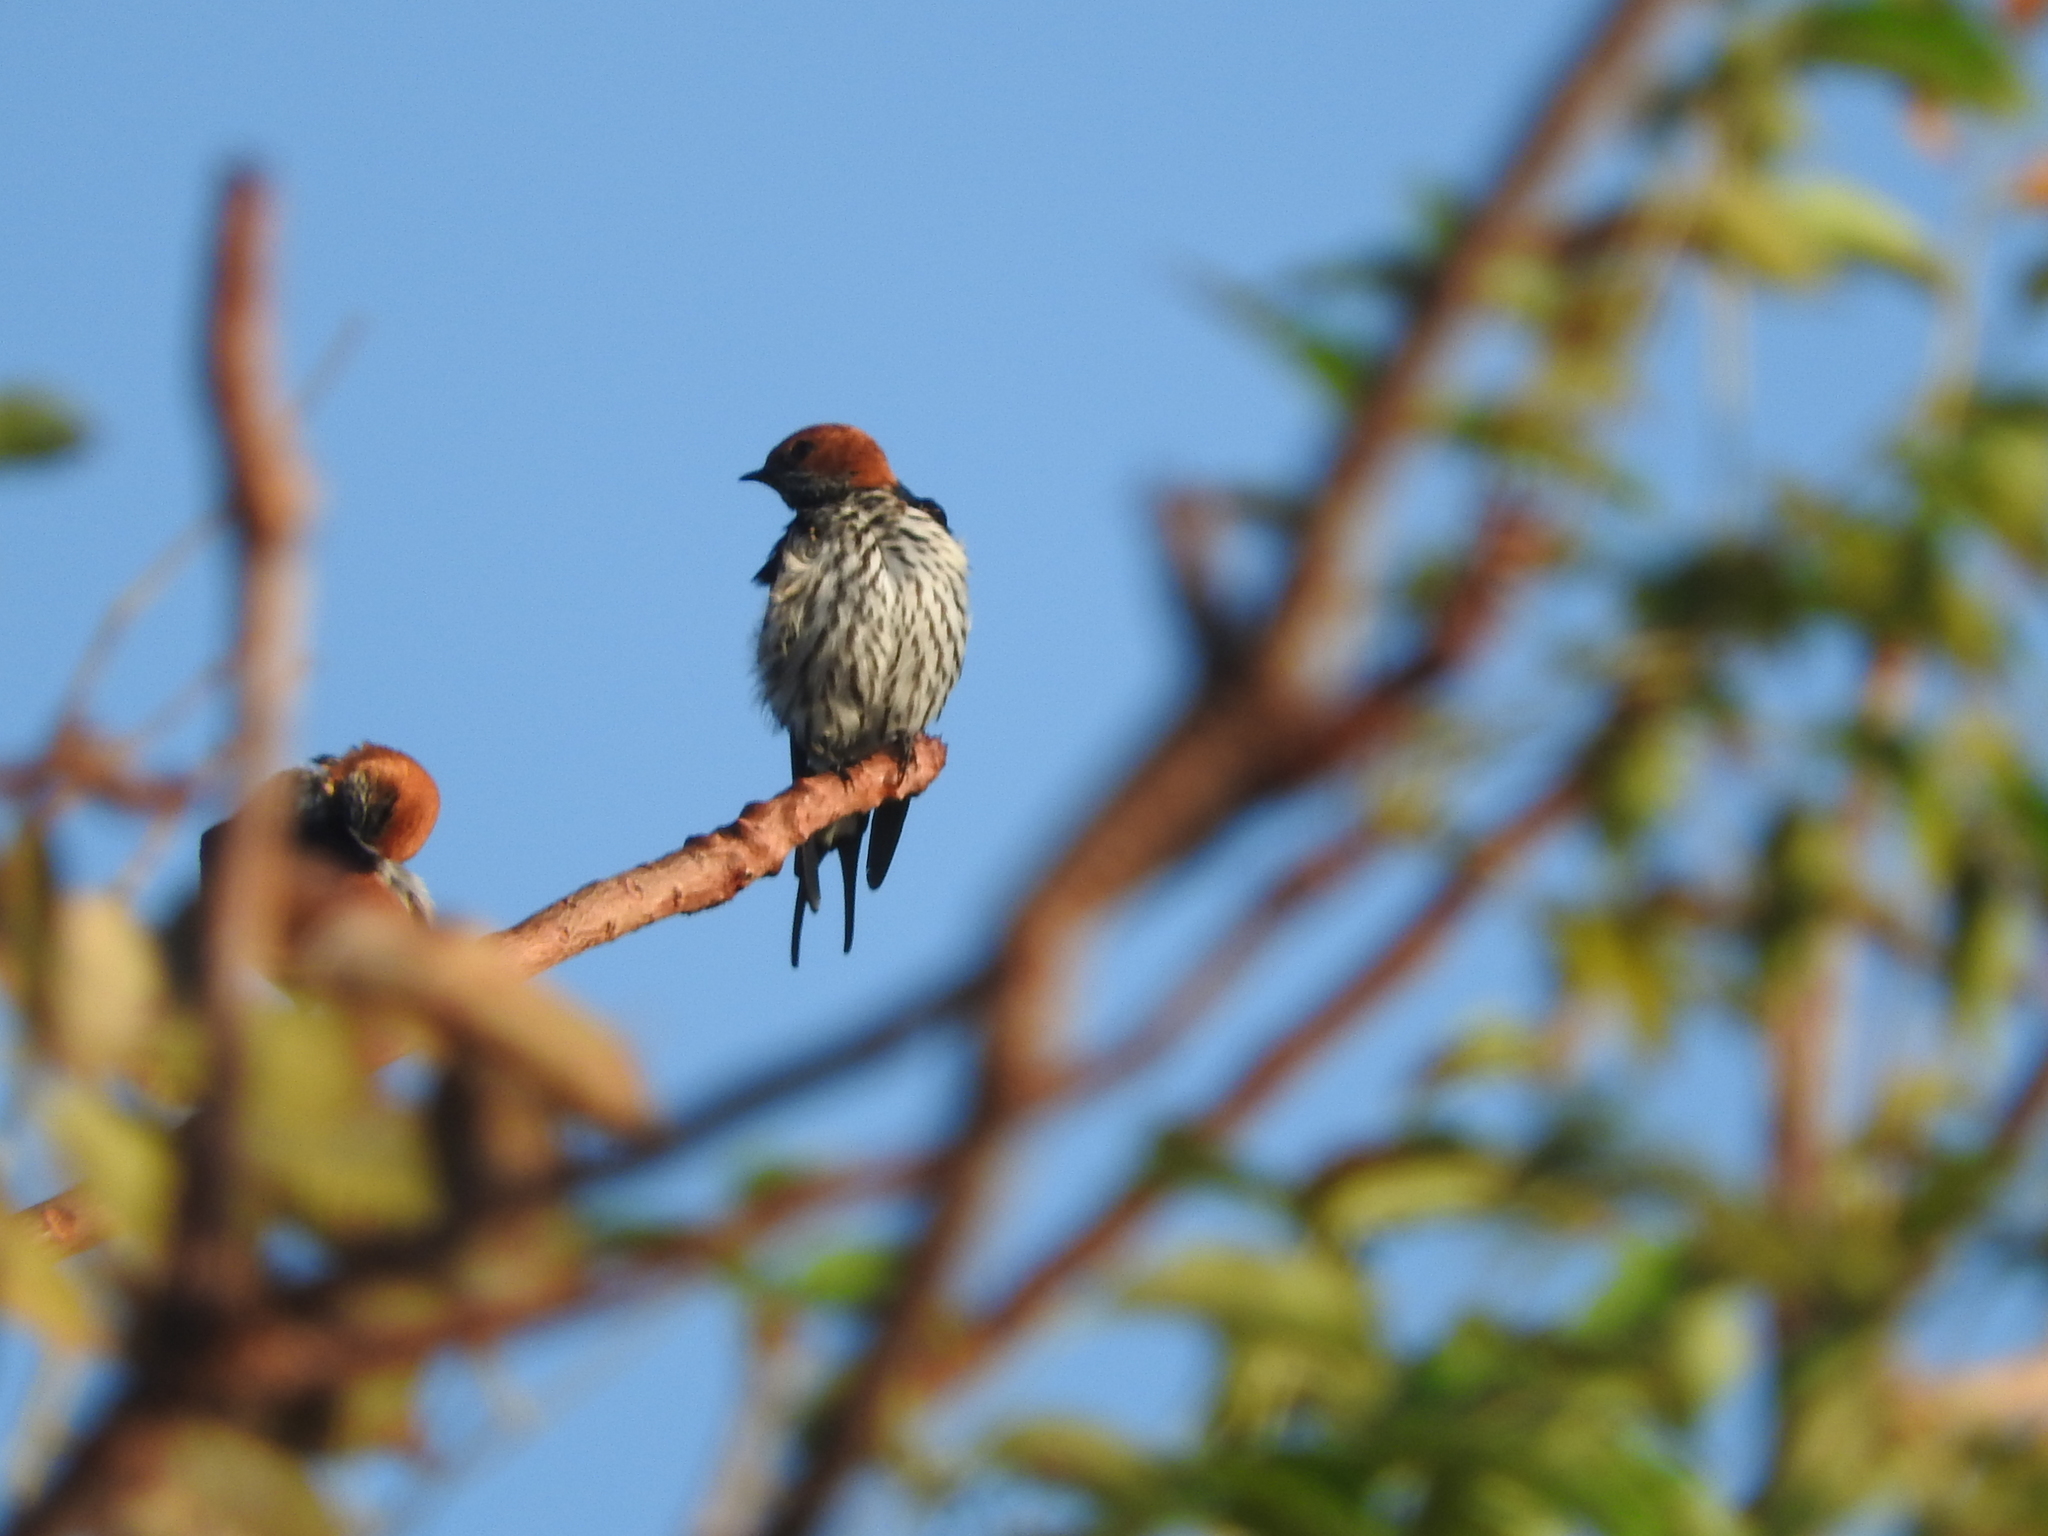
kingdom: Animalia
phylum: Chordata
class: Aves
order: Passeriformes
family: Hirundinidae
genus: Cecropis
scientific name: Cecropis abyssinica
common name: Lesser striped-swallow
